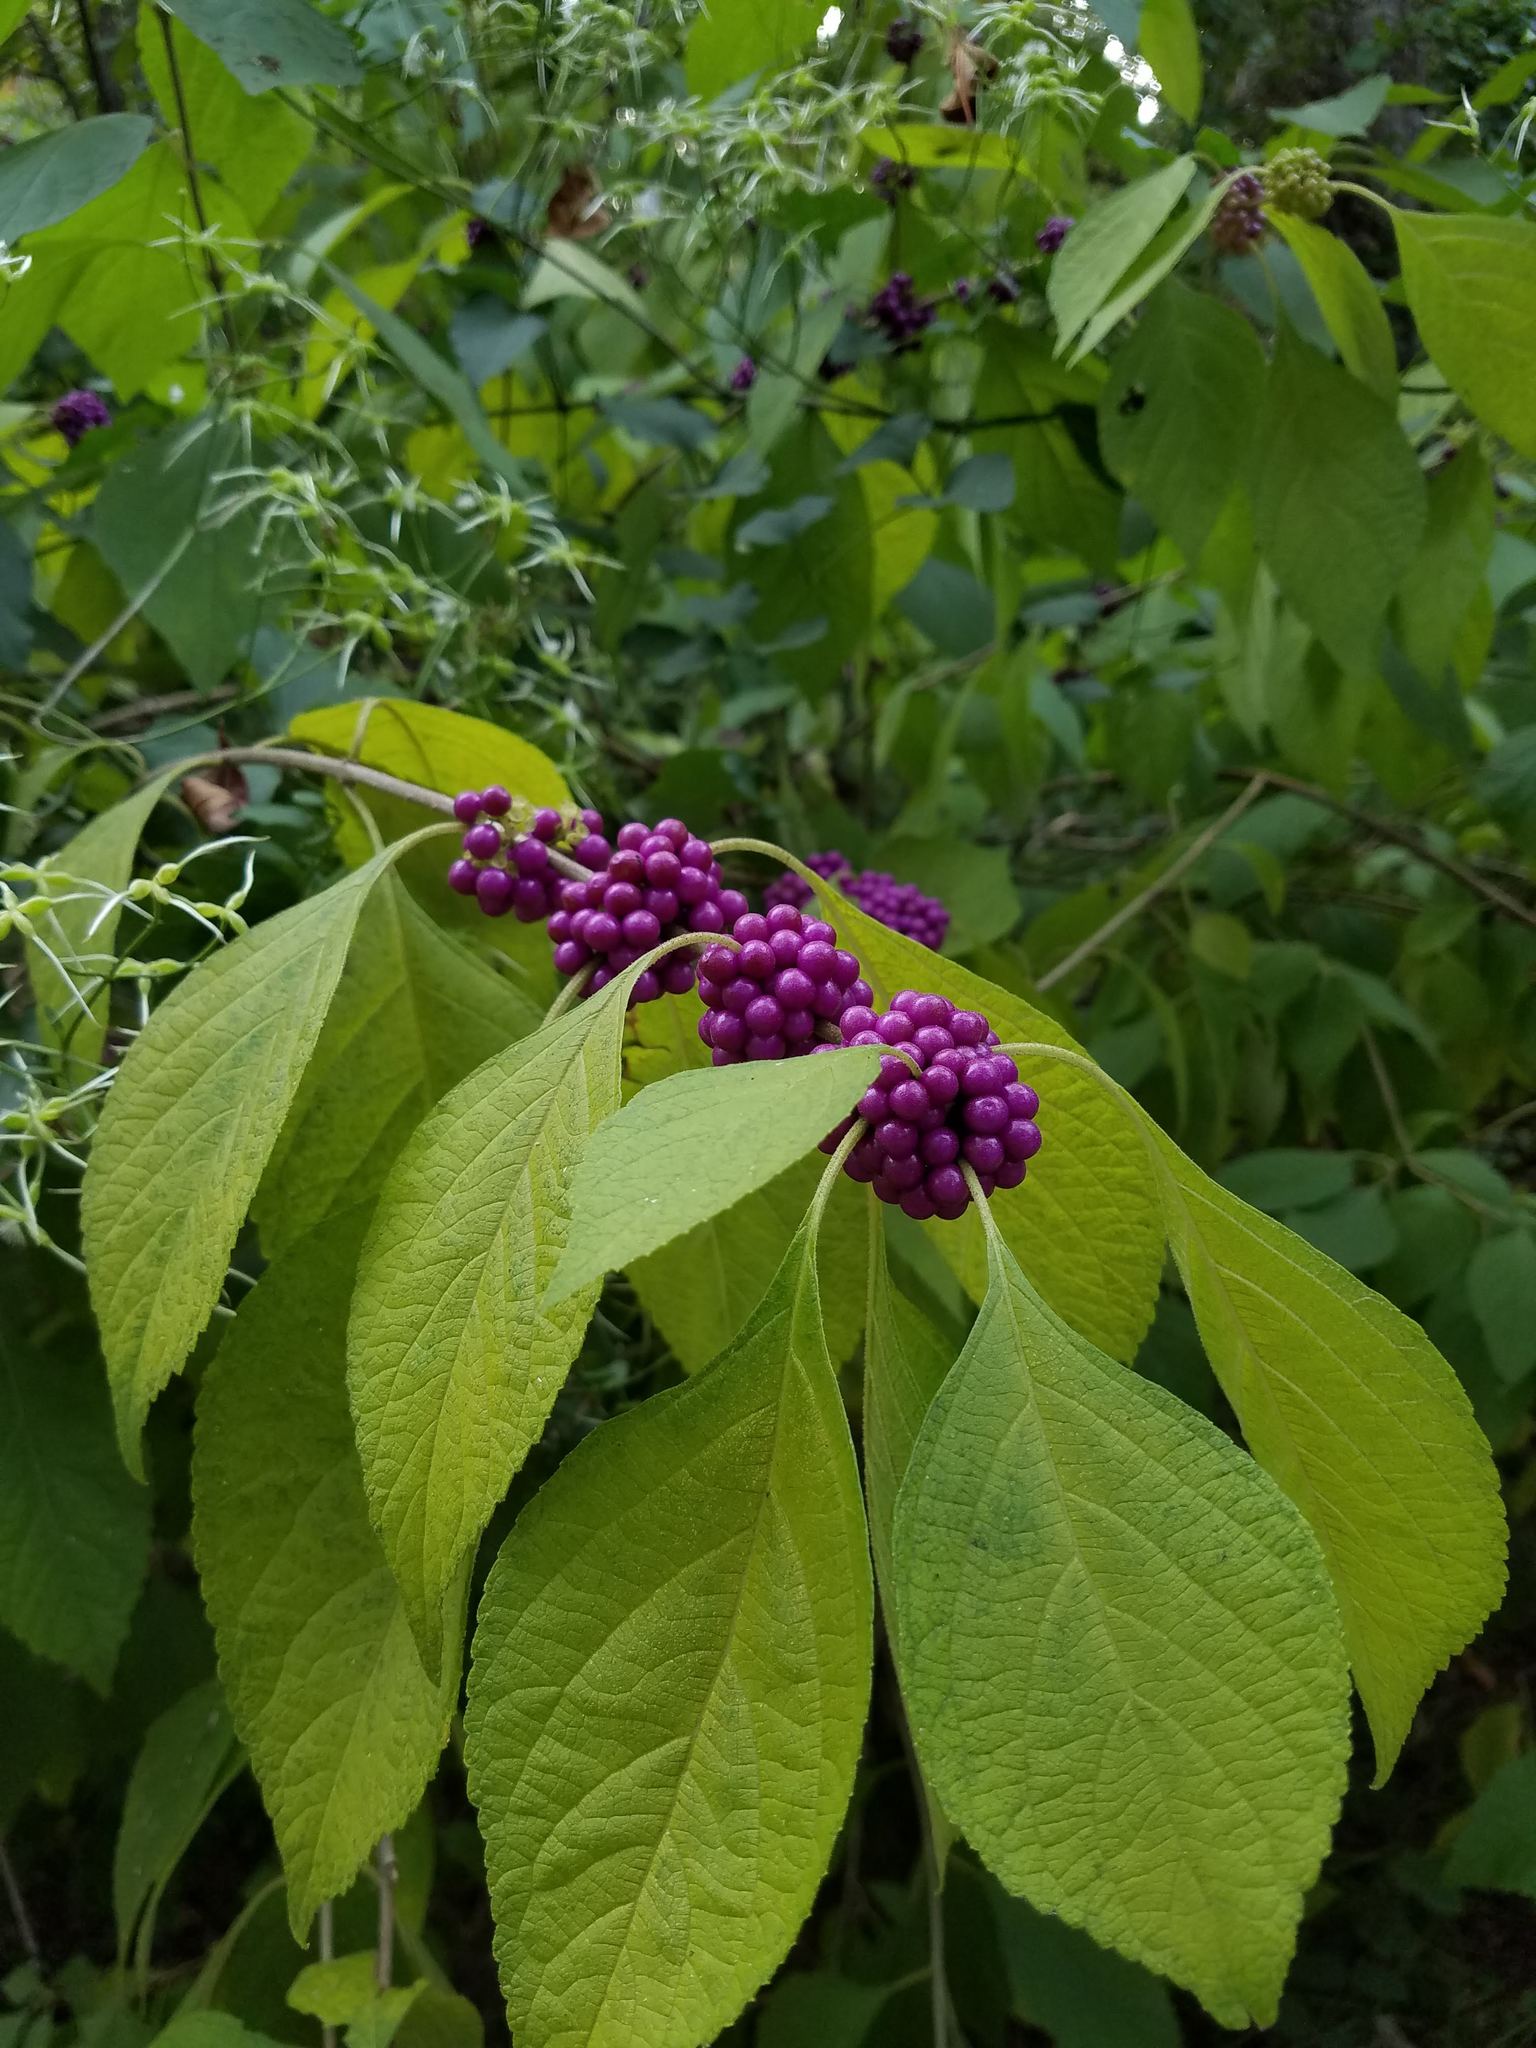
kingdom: Plantae
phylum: Tracheophyta
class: Magnoliopsida
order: Lamiales
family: Lamiaceae
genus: Callicarpa
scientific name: Callicarpa americana
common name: American beautyberry
